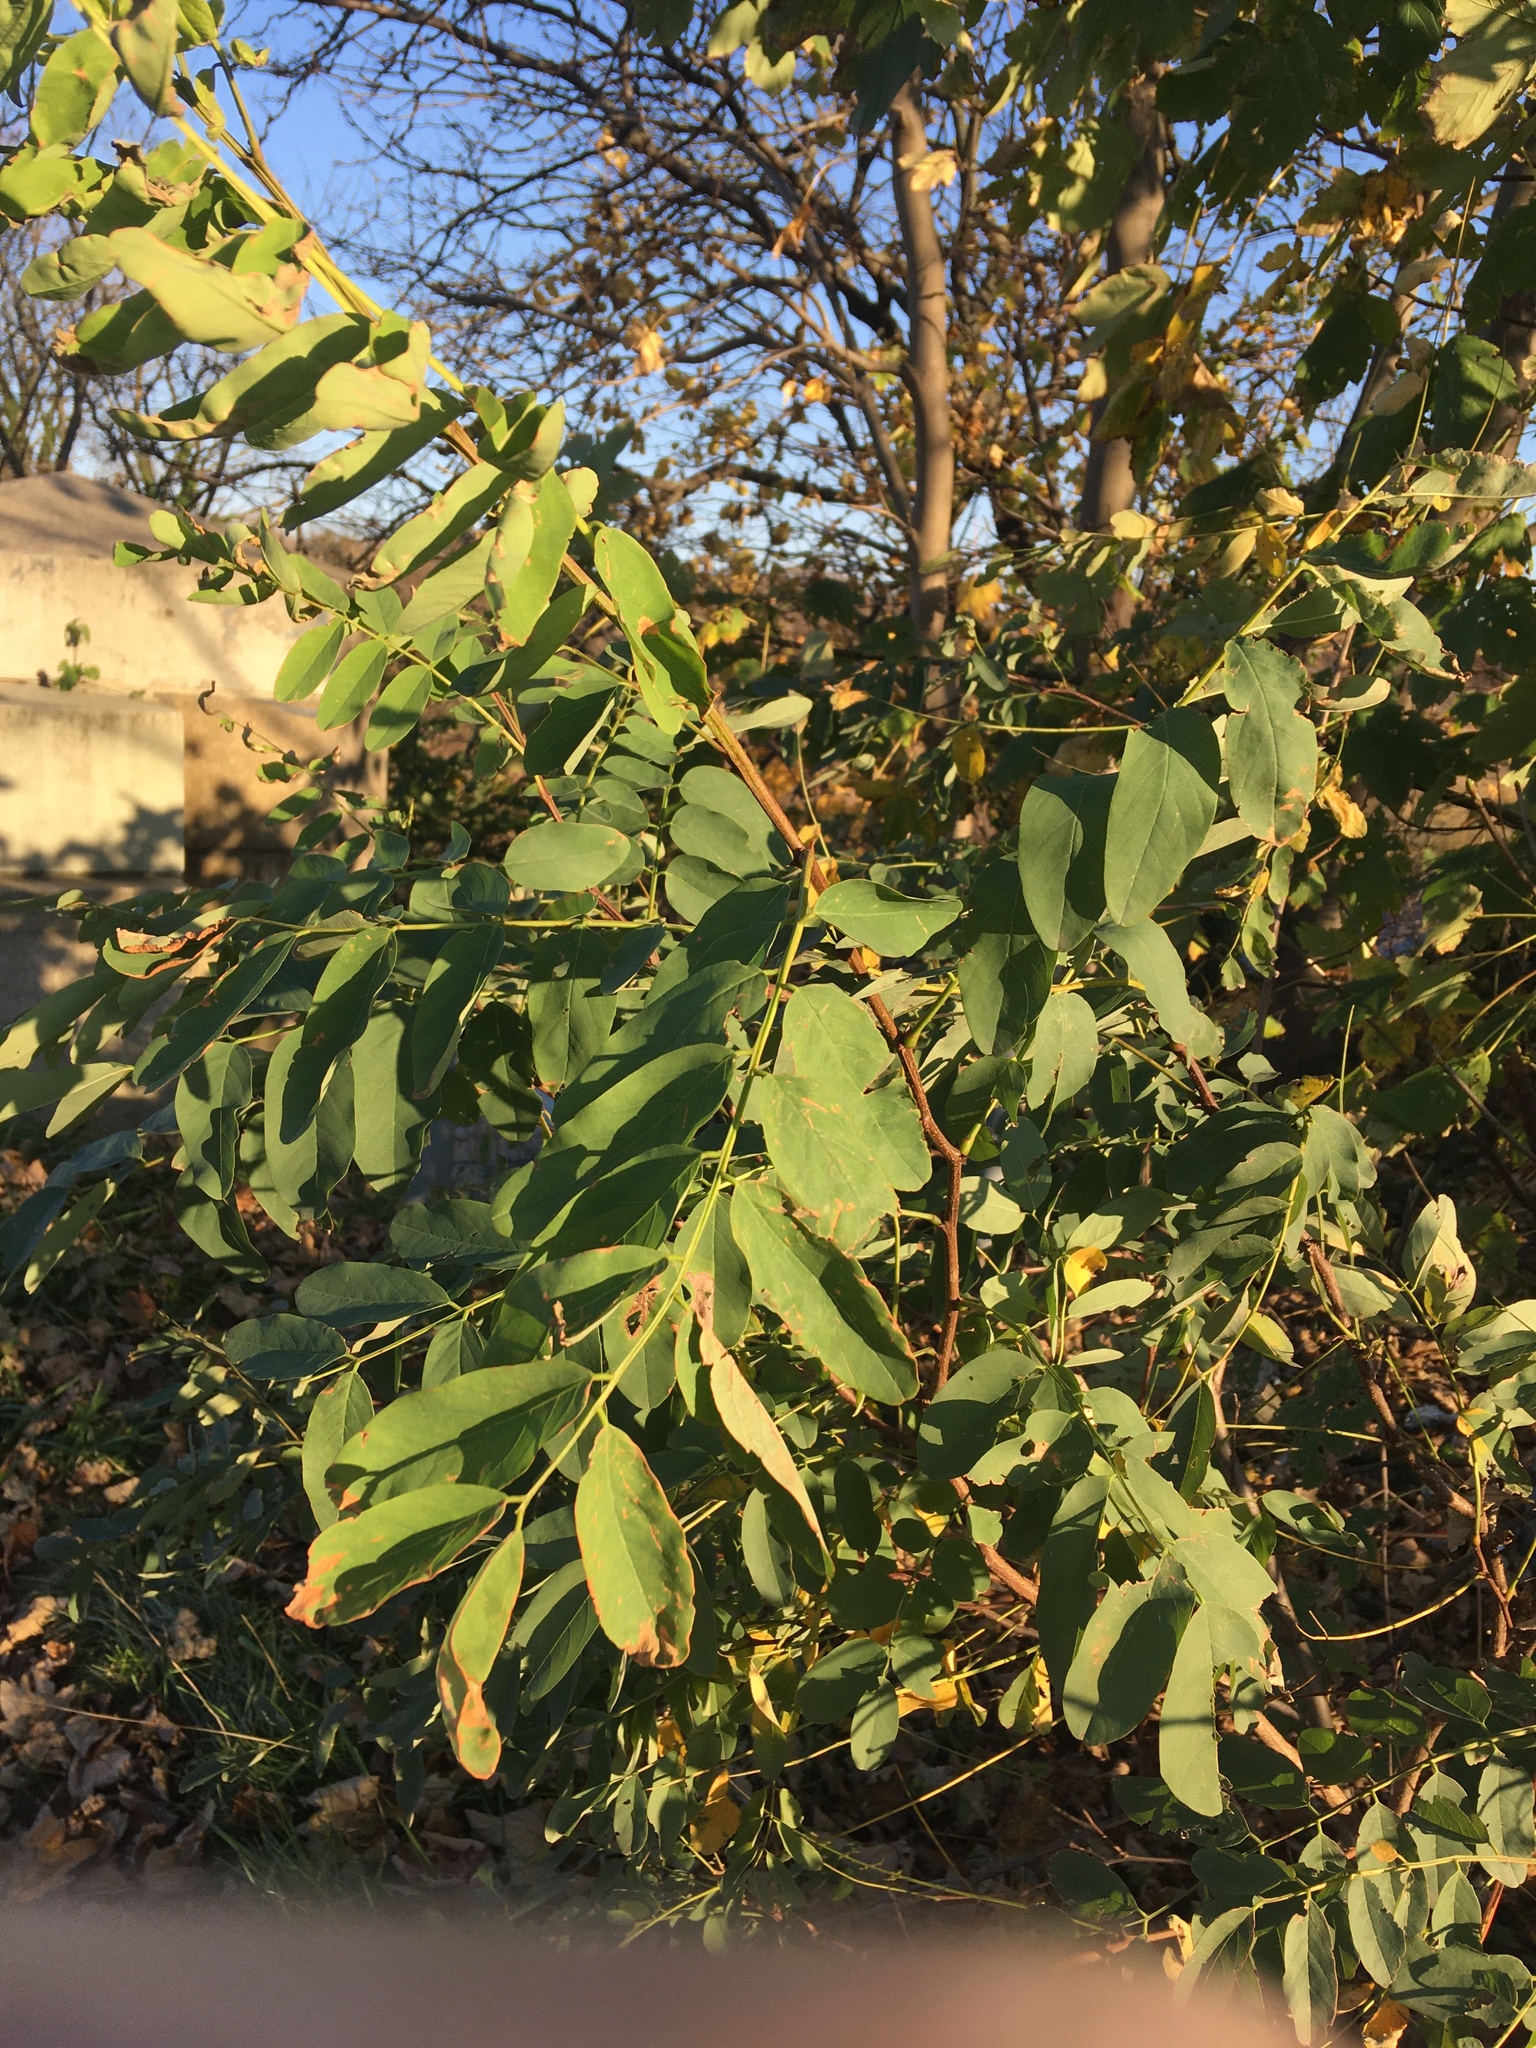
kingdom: Plantae
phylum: Tracheophyta
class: Magnoliopsida
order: Fabales
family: Fabaceae
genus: Robinia
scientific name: Robinia pseudoacacia
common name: Black locust
